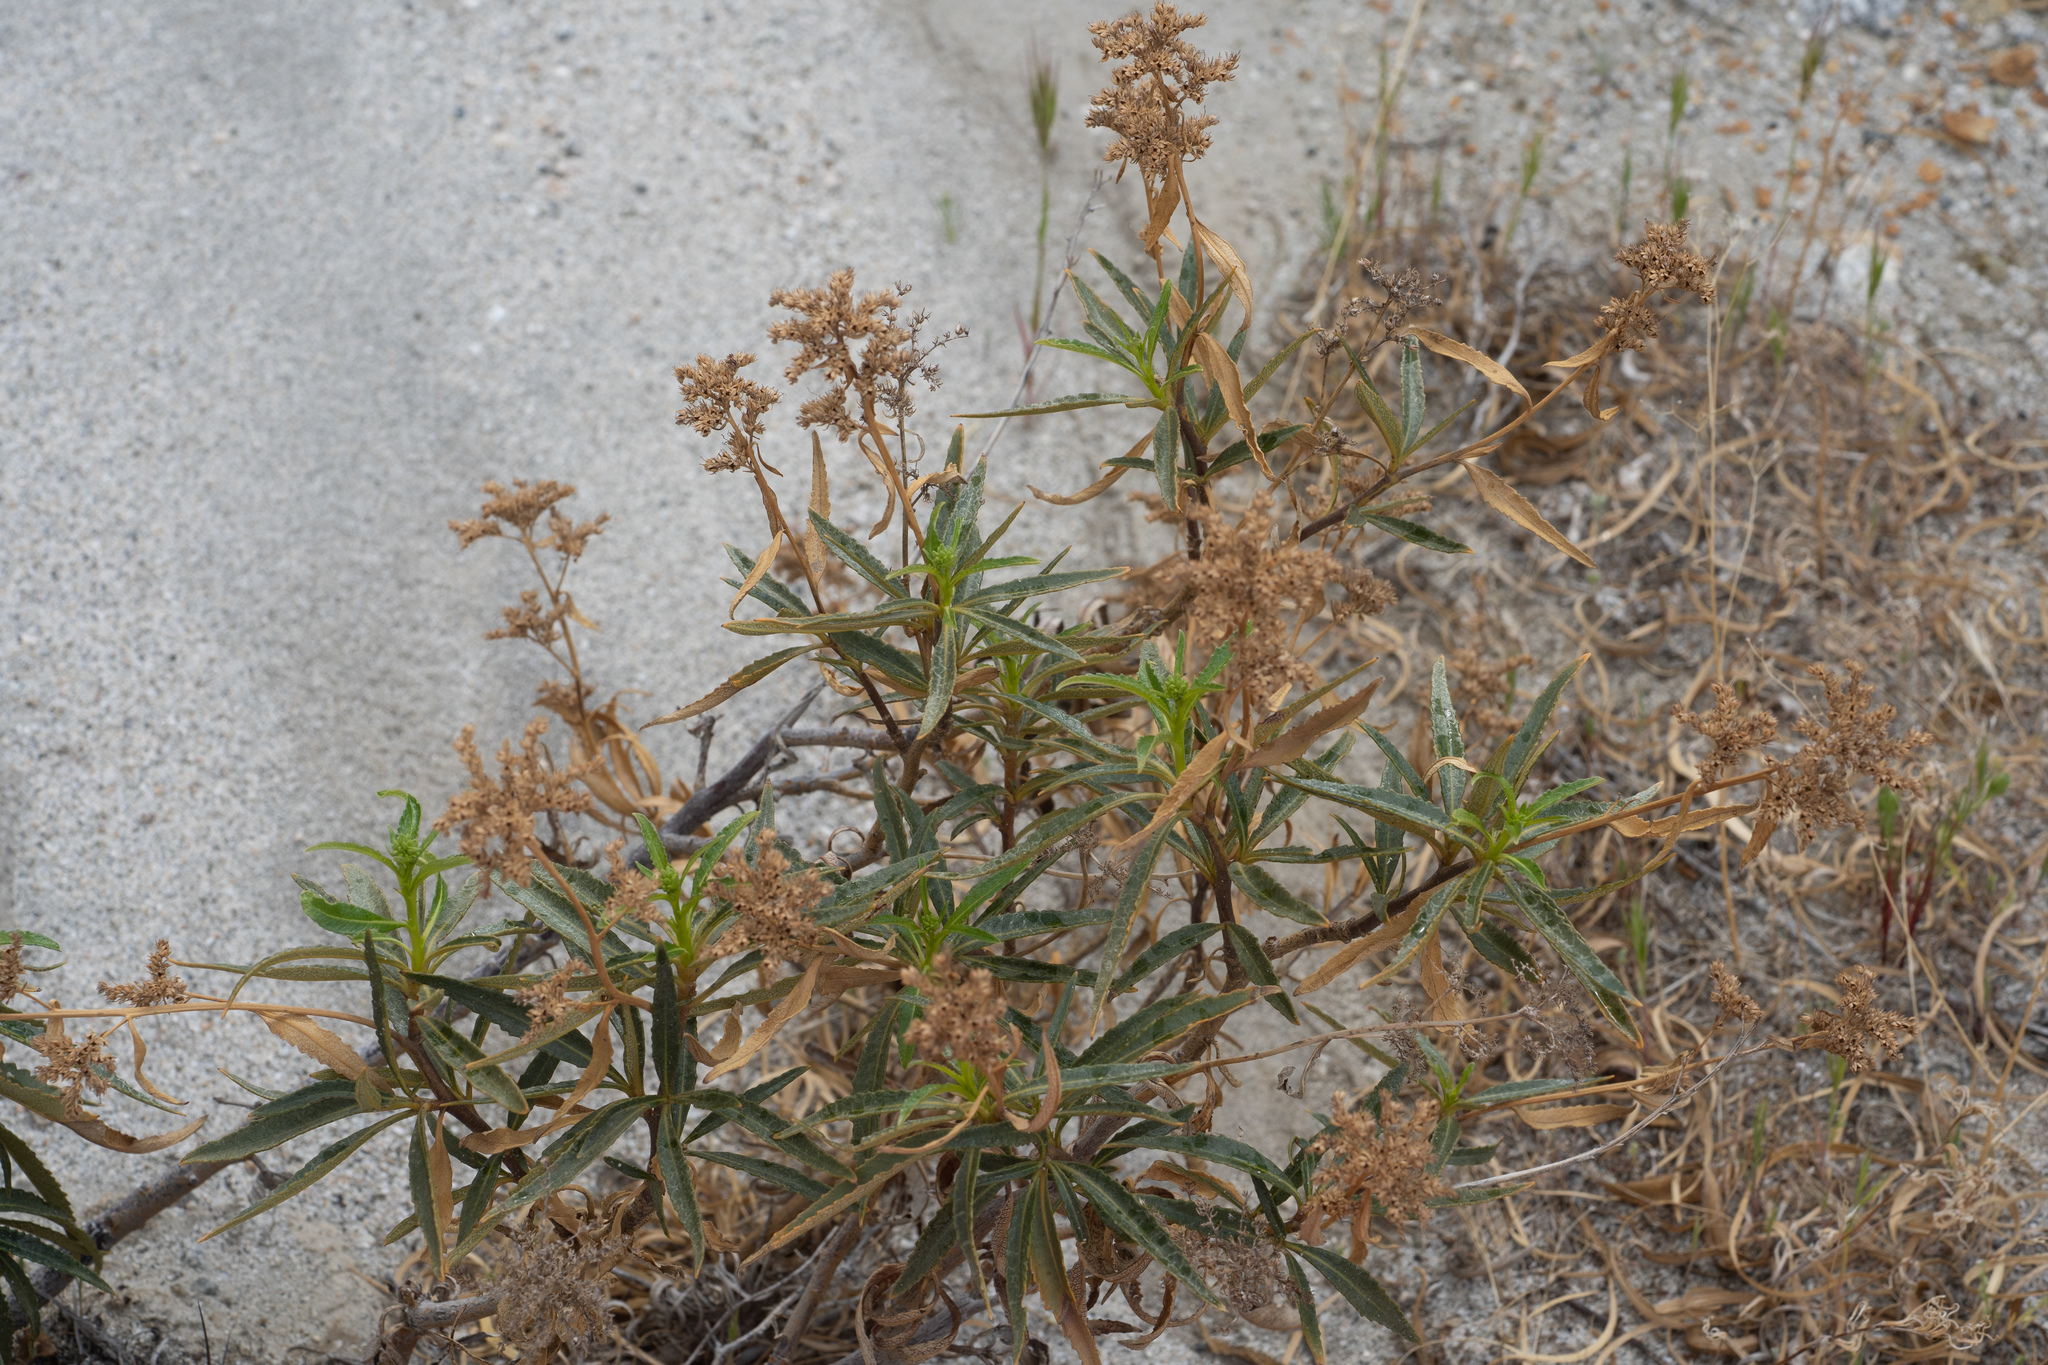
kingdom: Plantae
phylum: Tracheophyta
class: Magnoliopsida
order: Boraginales
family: Namaceae
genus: Eriodictyon
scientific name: Eriodictyon trichocalyx
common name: Hairy yerba-santa
